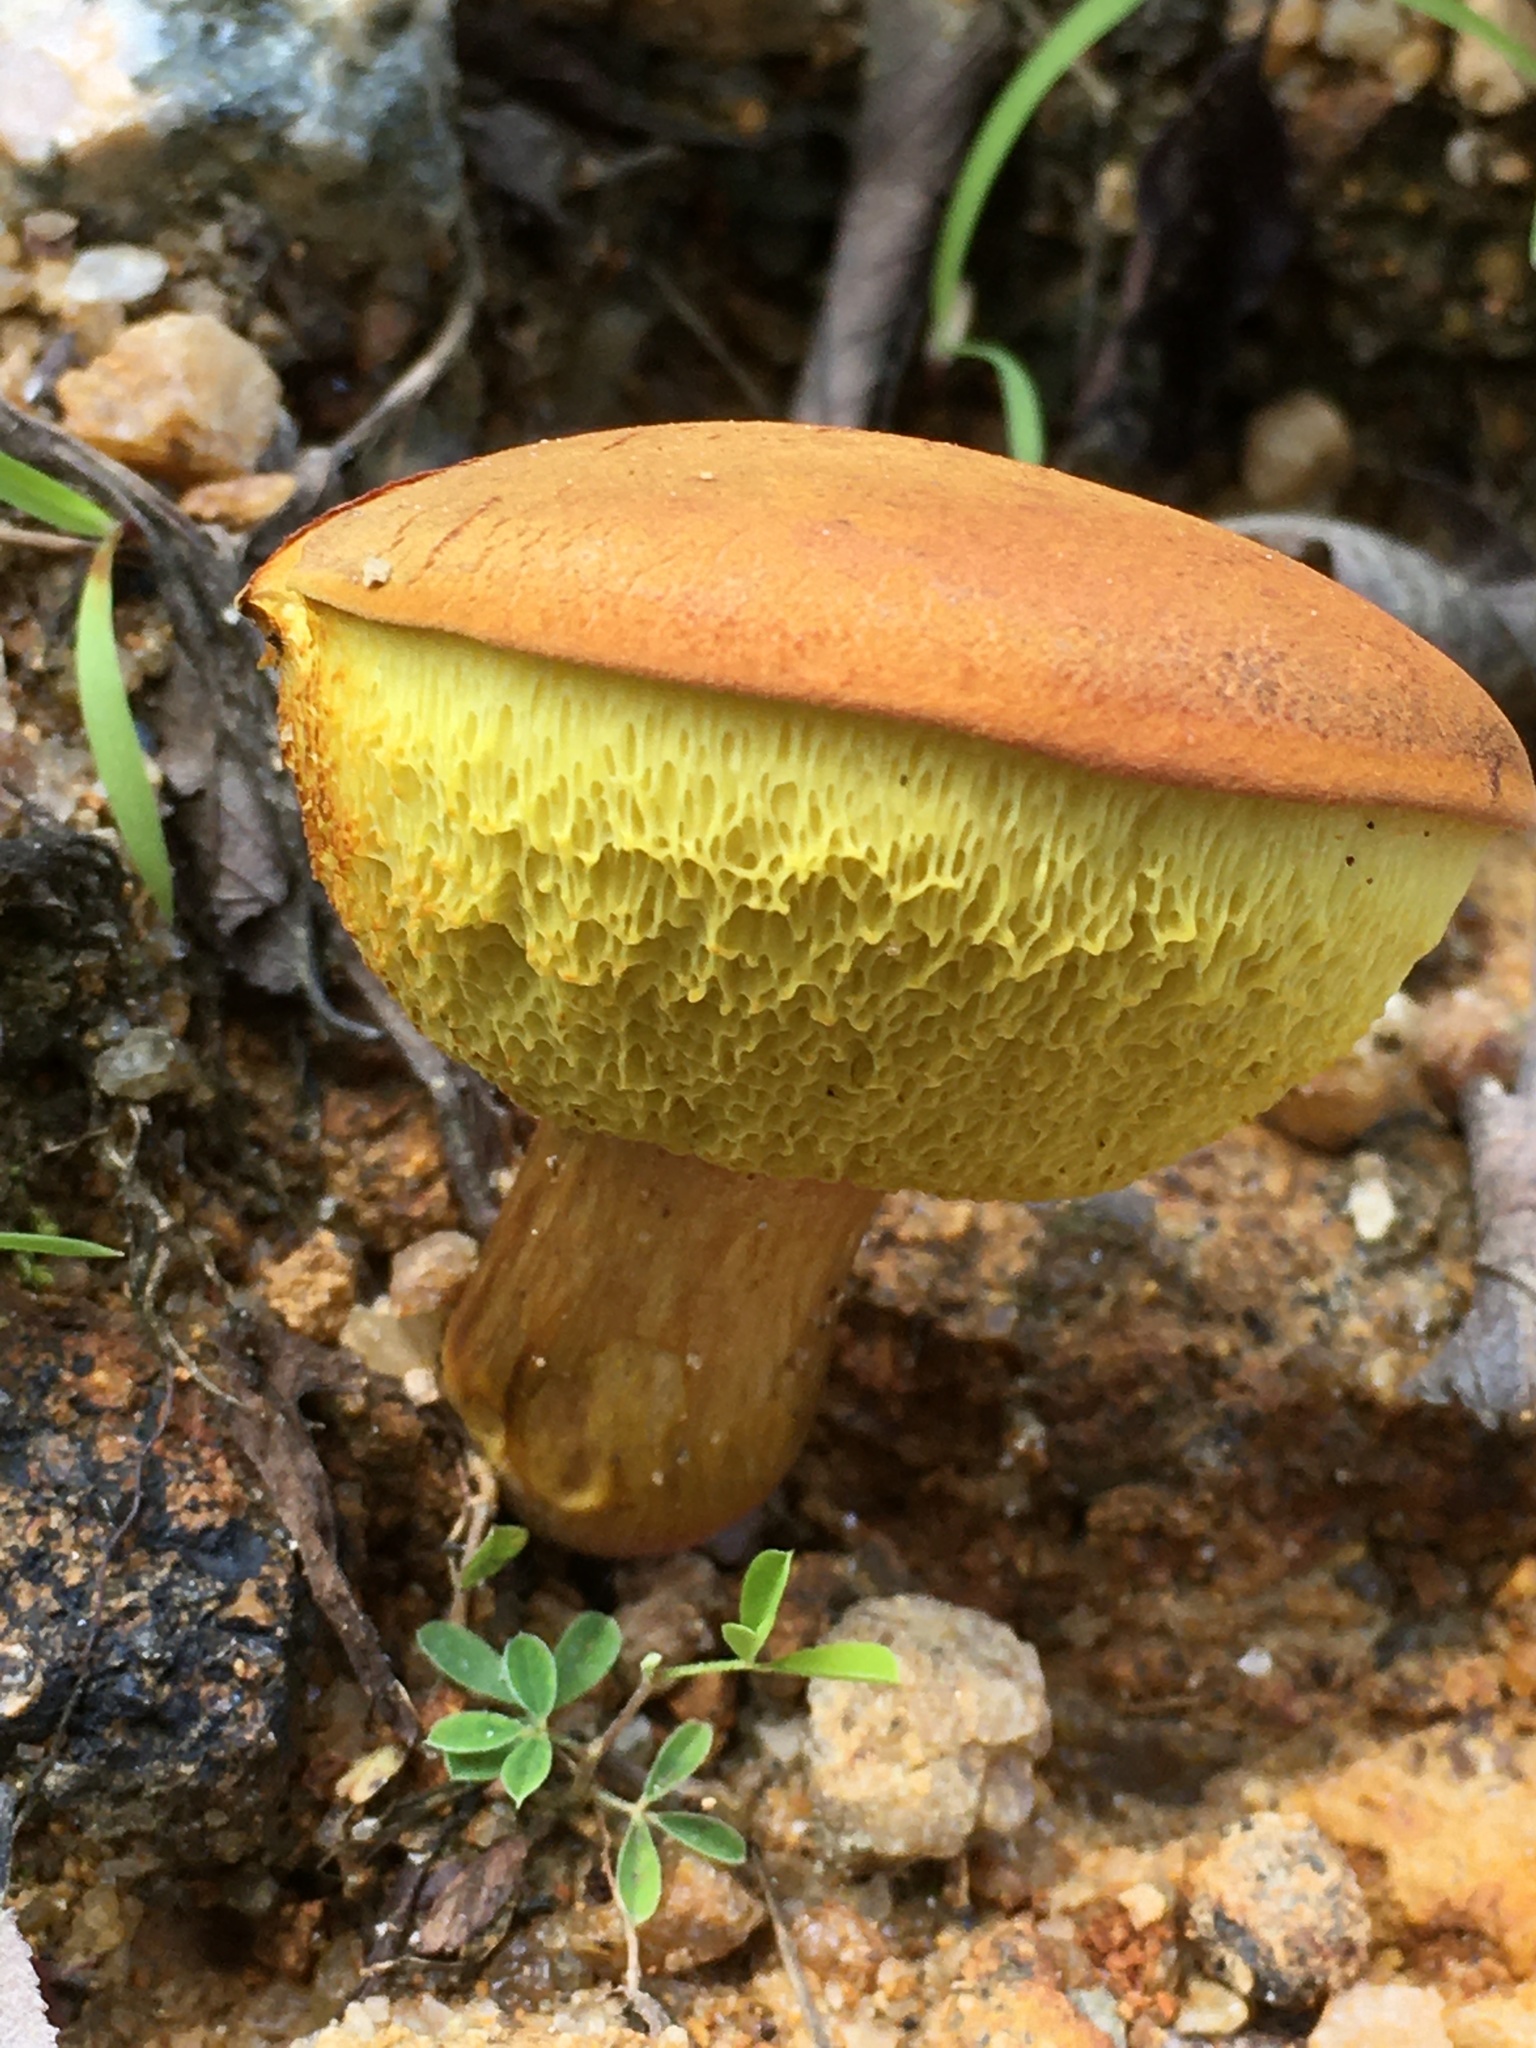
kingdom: Fungi
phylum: Basidiomycota
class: Agaricomycetes
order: Boletales
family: Boletaceae
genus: Baorangia
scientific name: Baorangia bicolor
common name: Two-colored bolete
